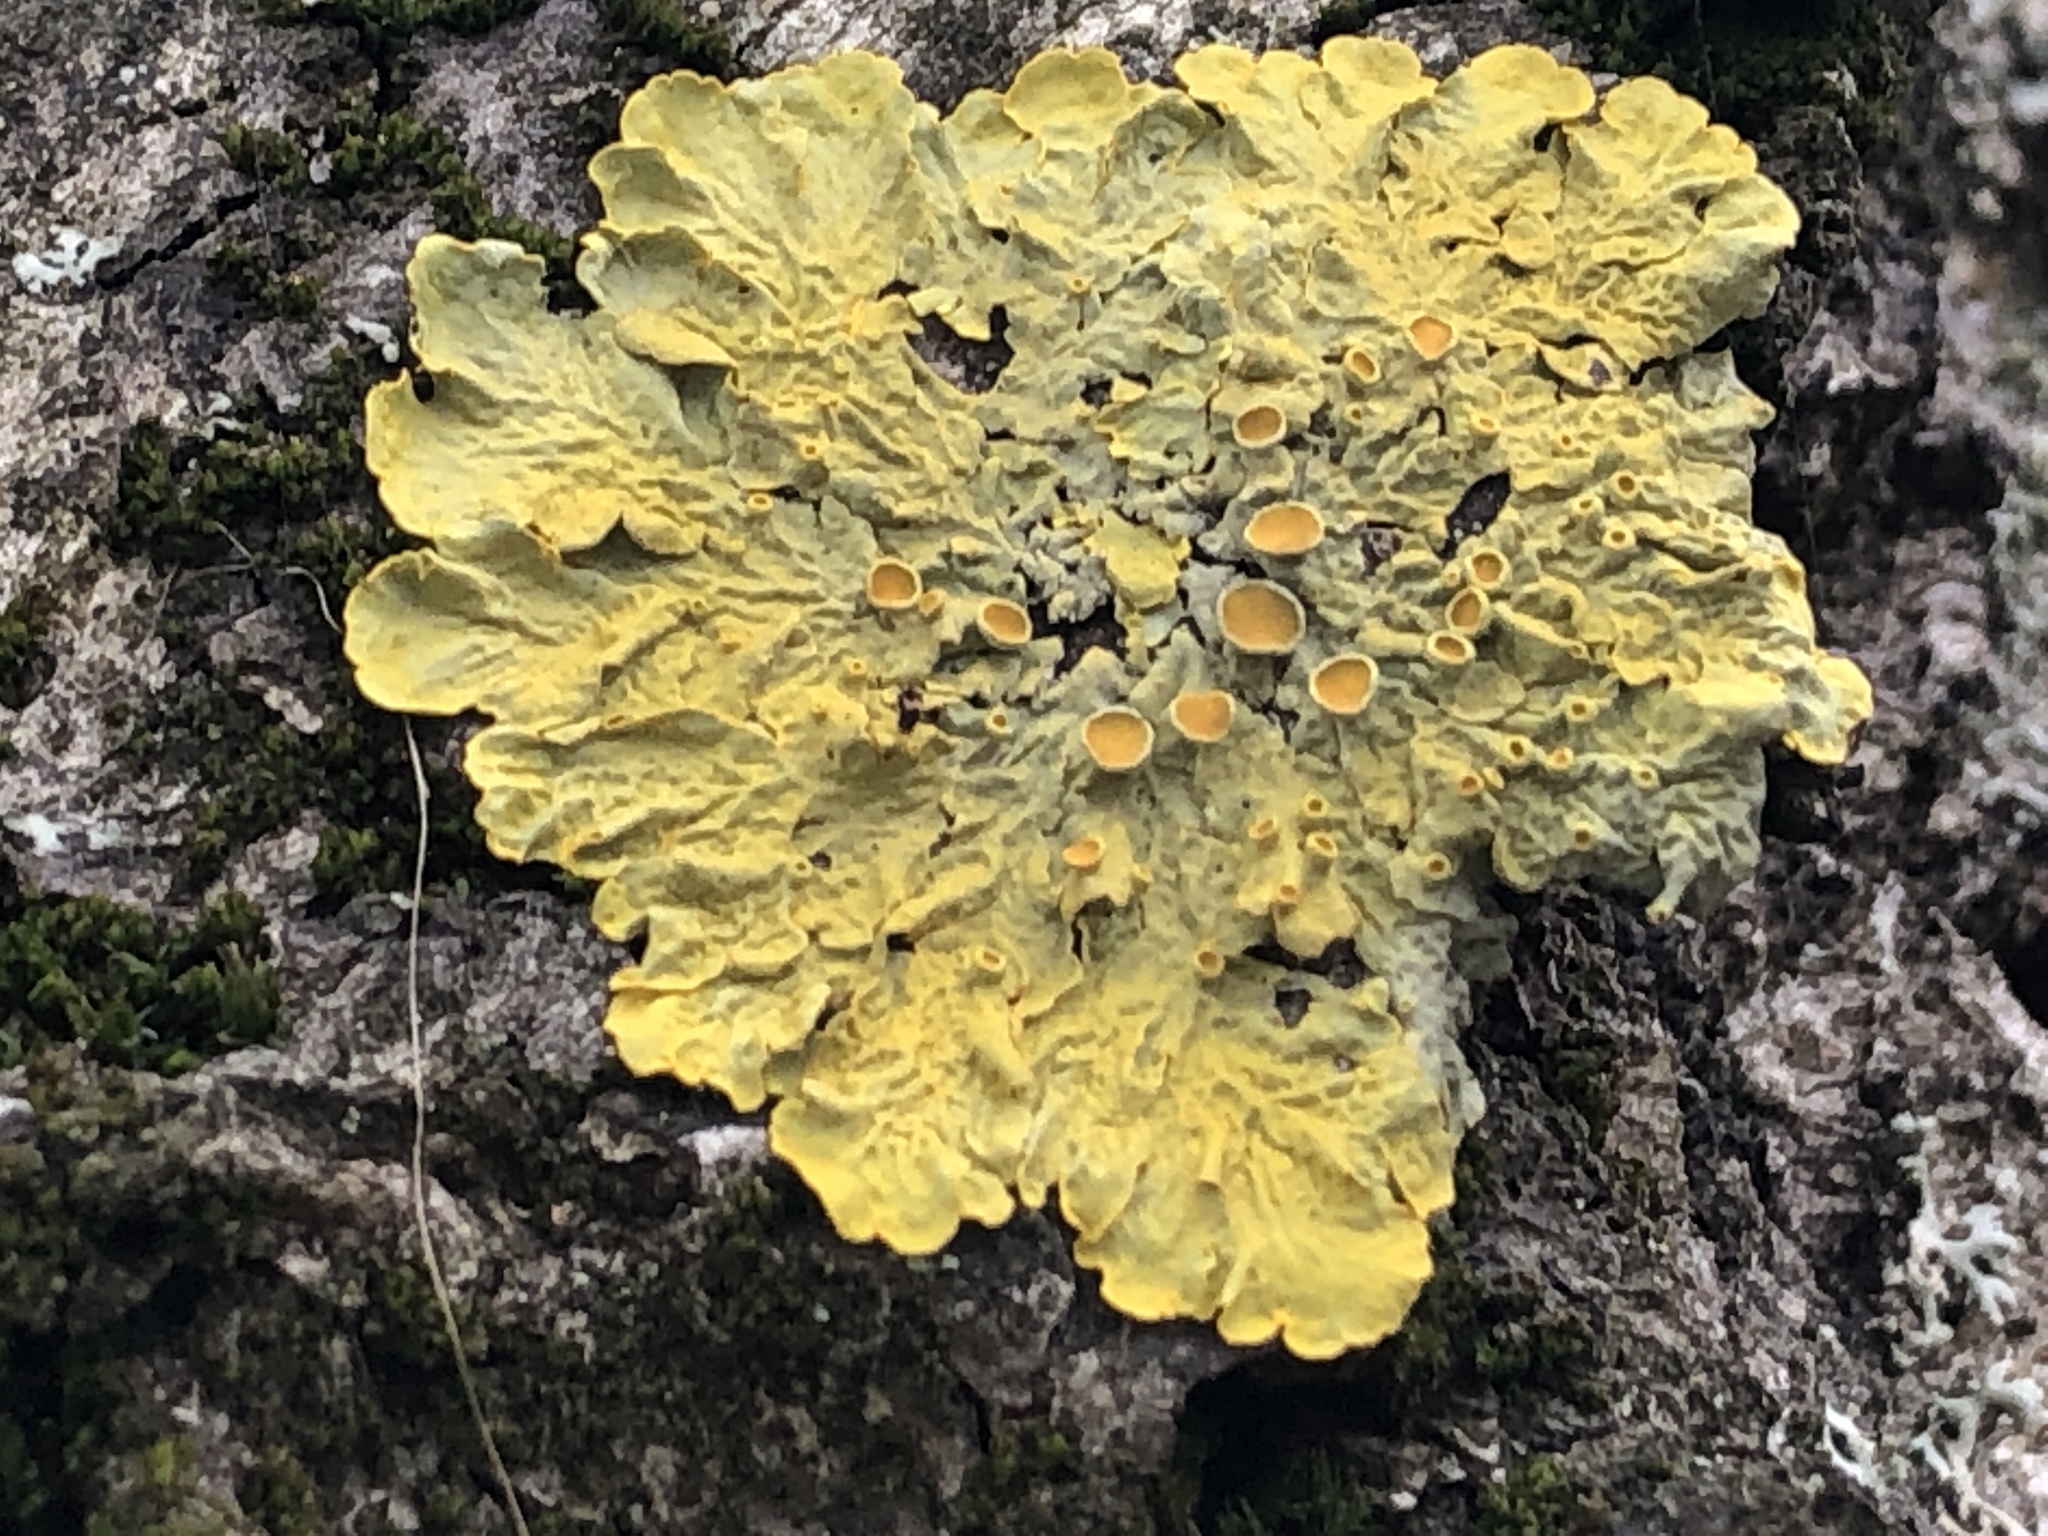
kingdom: Fungi
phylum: Ascomycota
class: Lecanoromycetes
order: Teloschistales
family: Teloschistaceae
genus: Xanthoria
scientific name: Xanthoria parietina
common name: Common orange lichen
